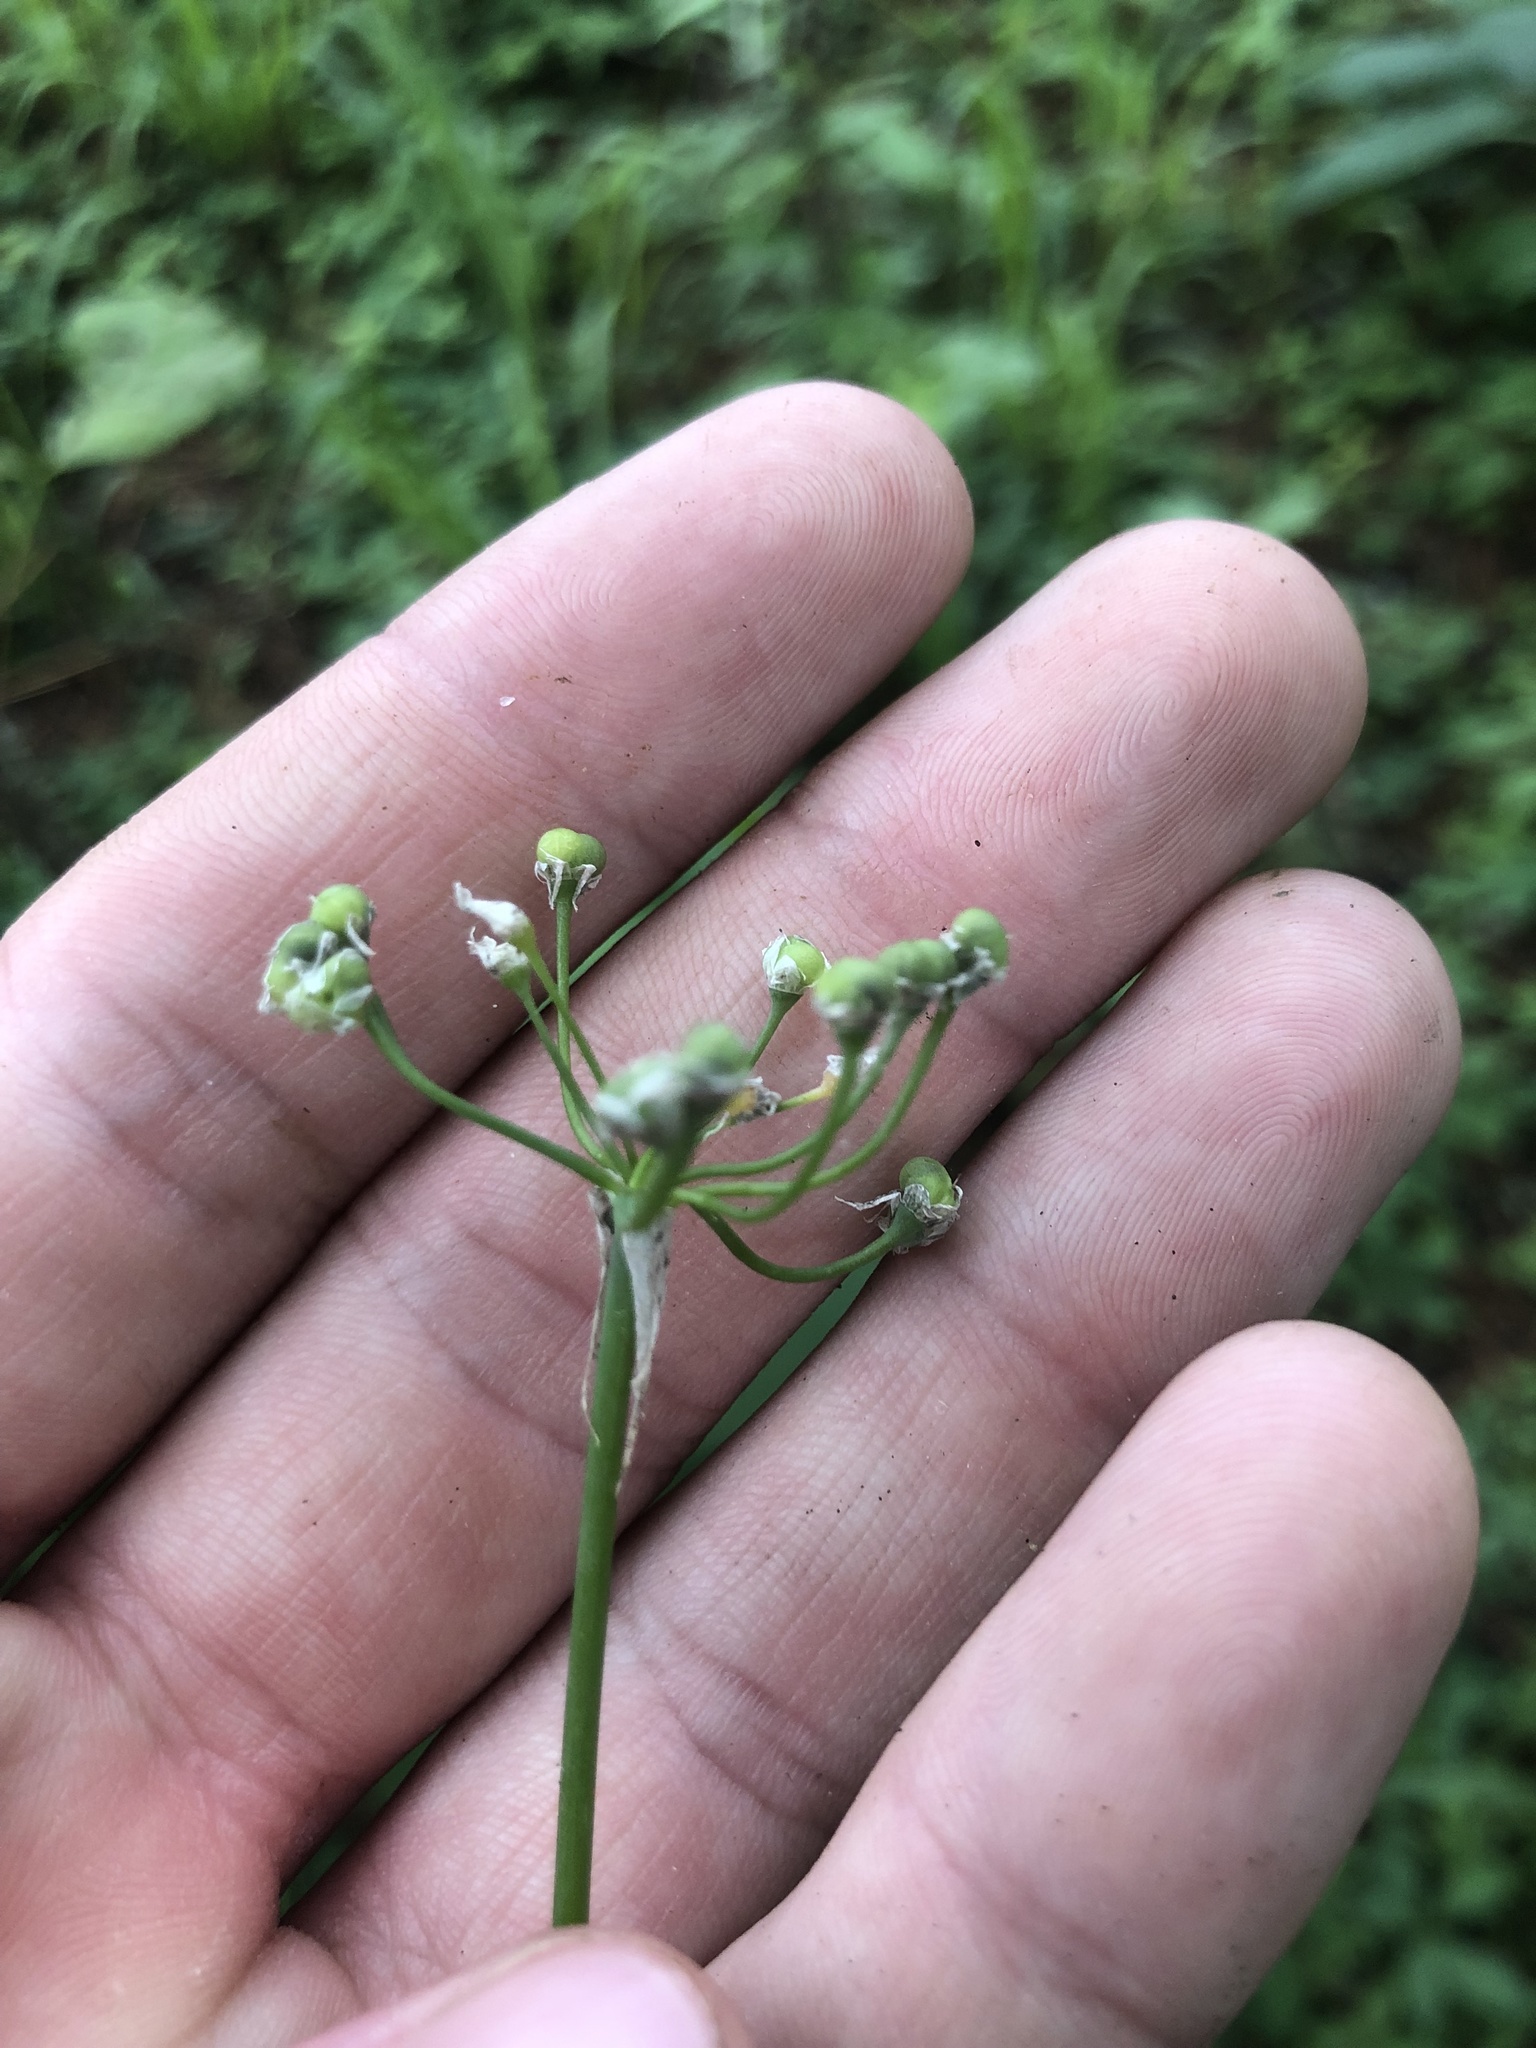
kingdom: Plantae
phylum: Tracheophyta
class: Liliopsida
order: Asparagales
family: Amaryllidaceae
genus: Allium
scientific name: Allium canadense
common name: Meadow garlic
